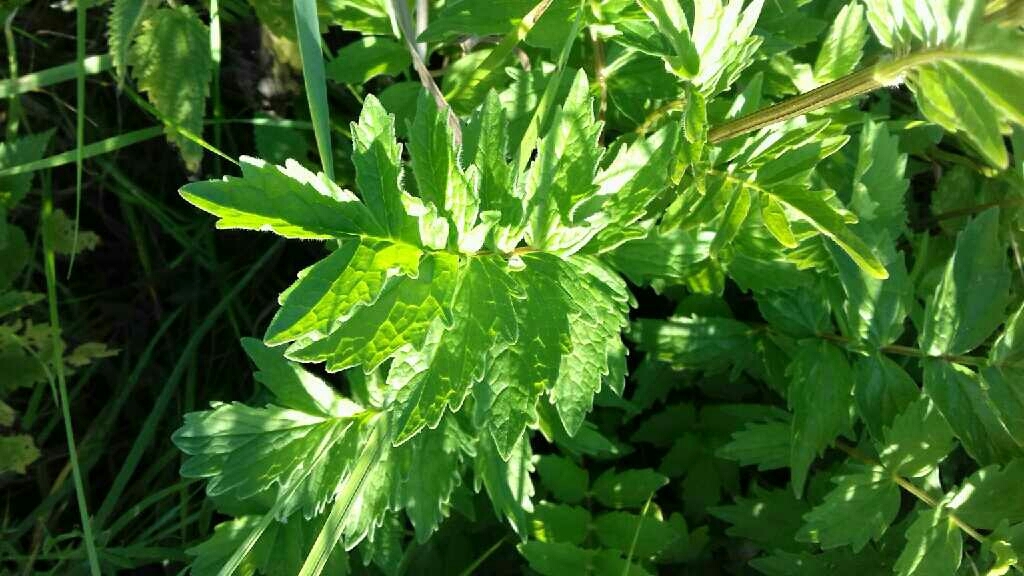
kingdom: Plantae
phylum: Tracheophyta
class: Magnoliopsida
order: Dipsacales
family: Caprifoliaceae
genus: Valeriana
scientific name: Valeriana officinalis
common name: Common valerian
